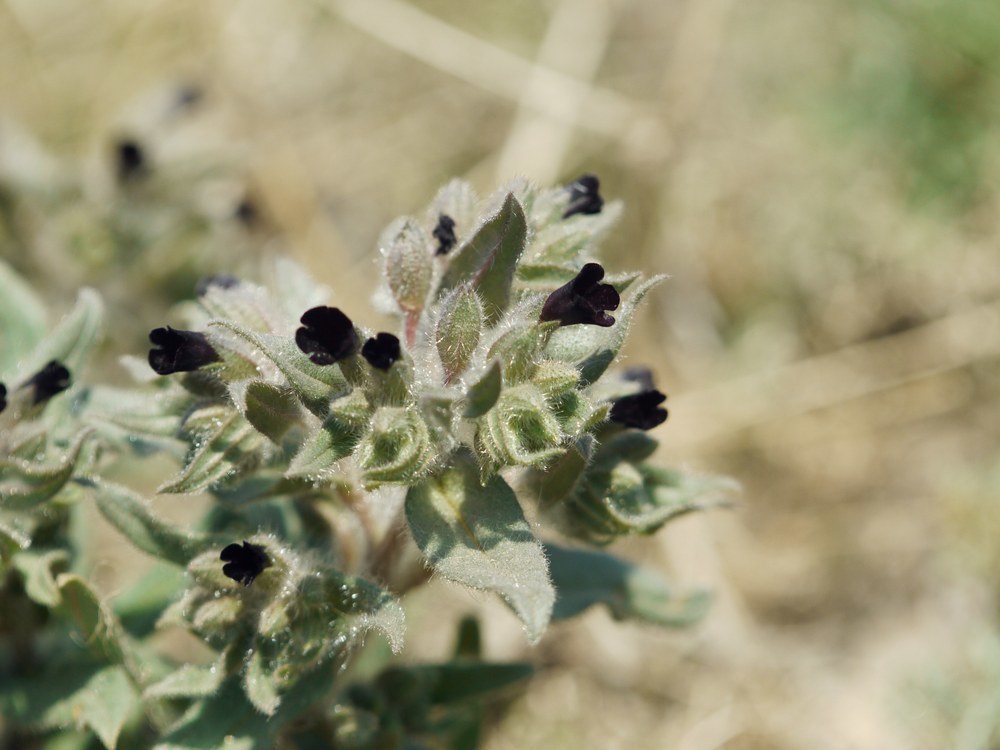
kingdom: Plantae
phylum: Tracheophyta
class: Magnoliopsida
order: Boraginales
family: Boraginaceae
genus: Nonea
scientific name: Nonea pulla
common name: Brown nonea
